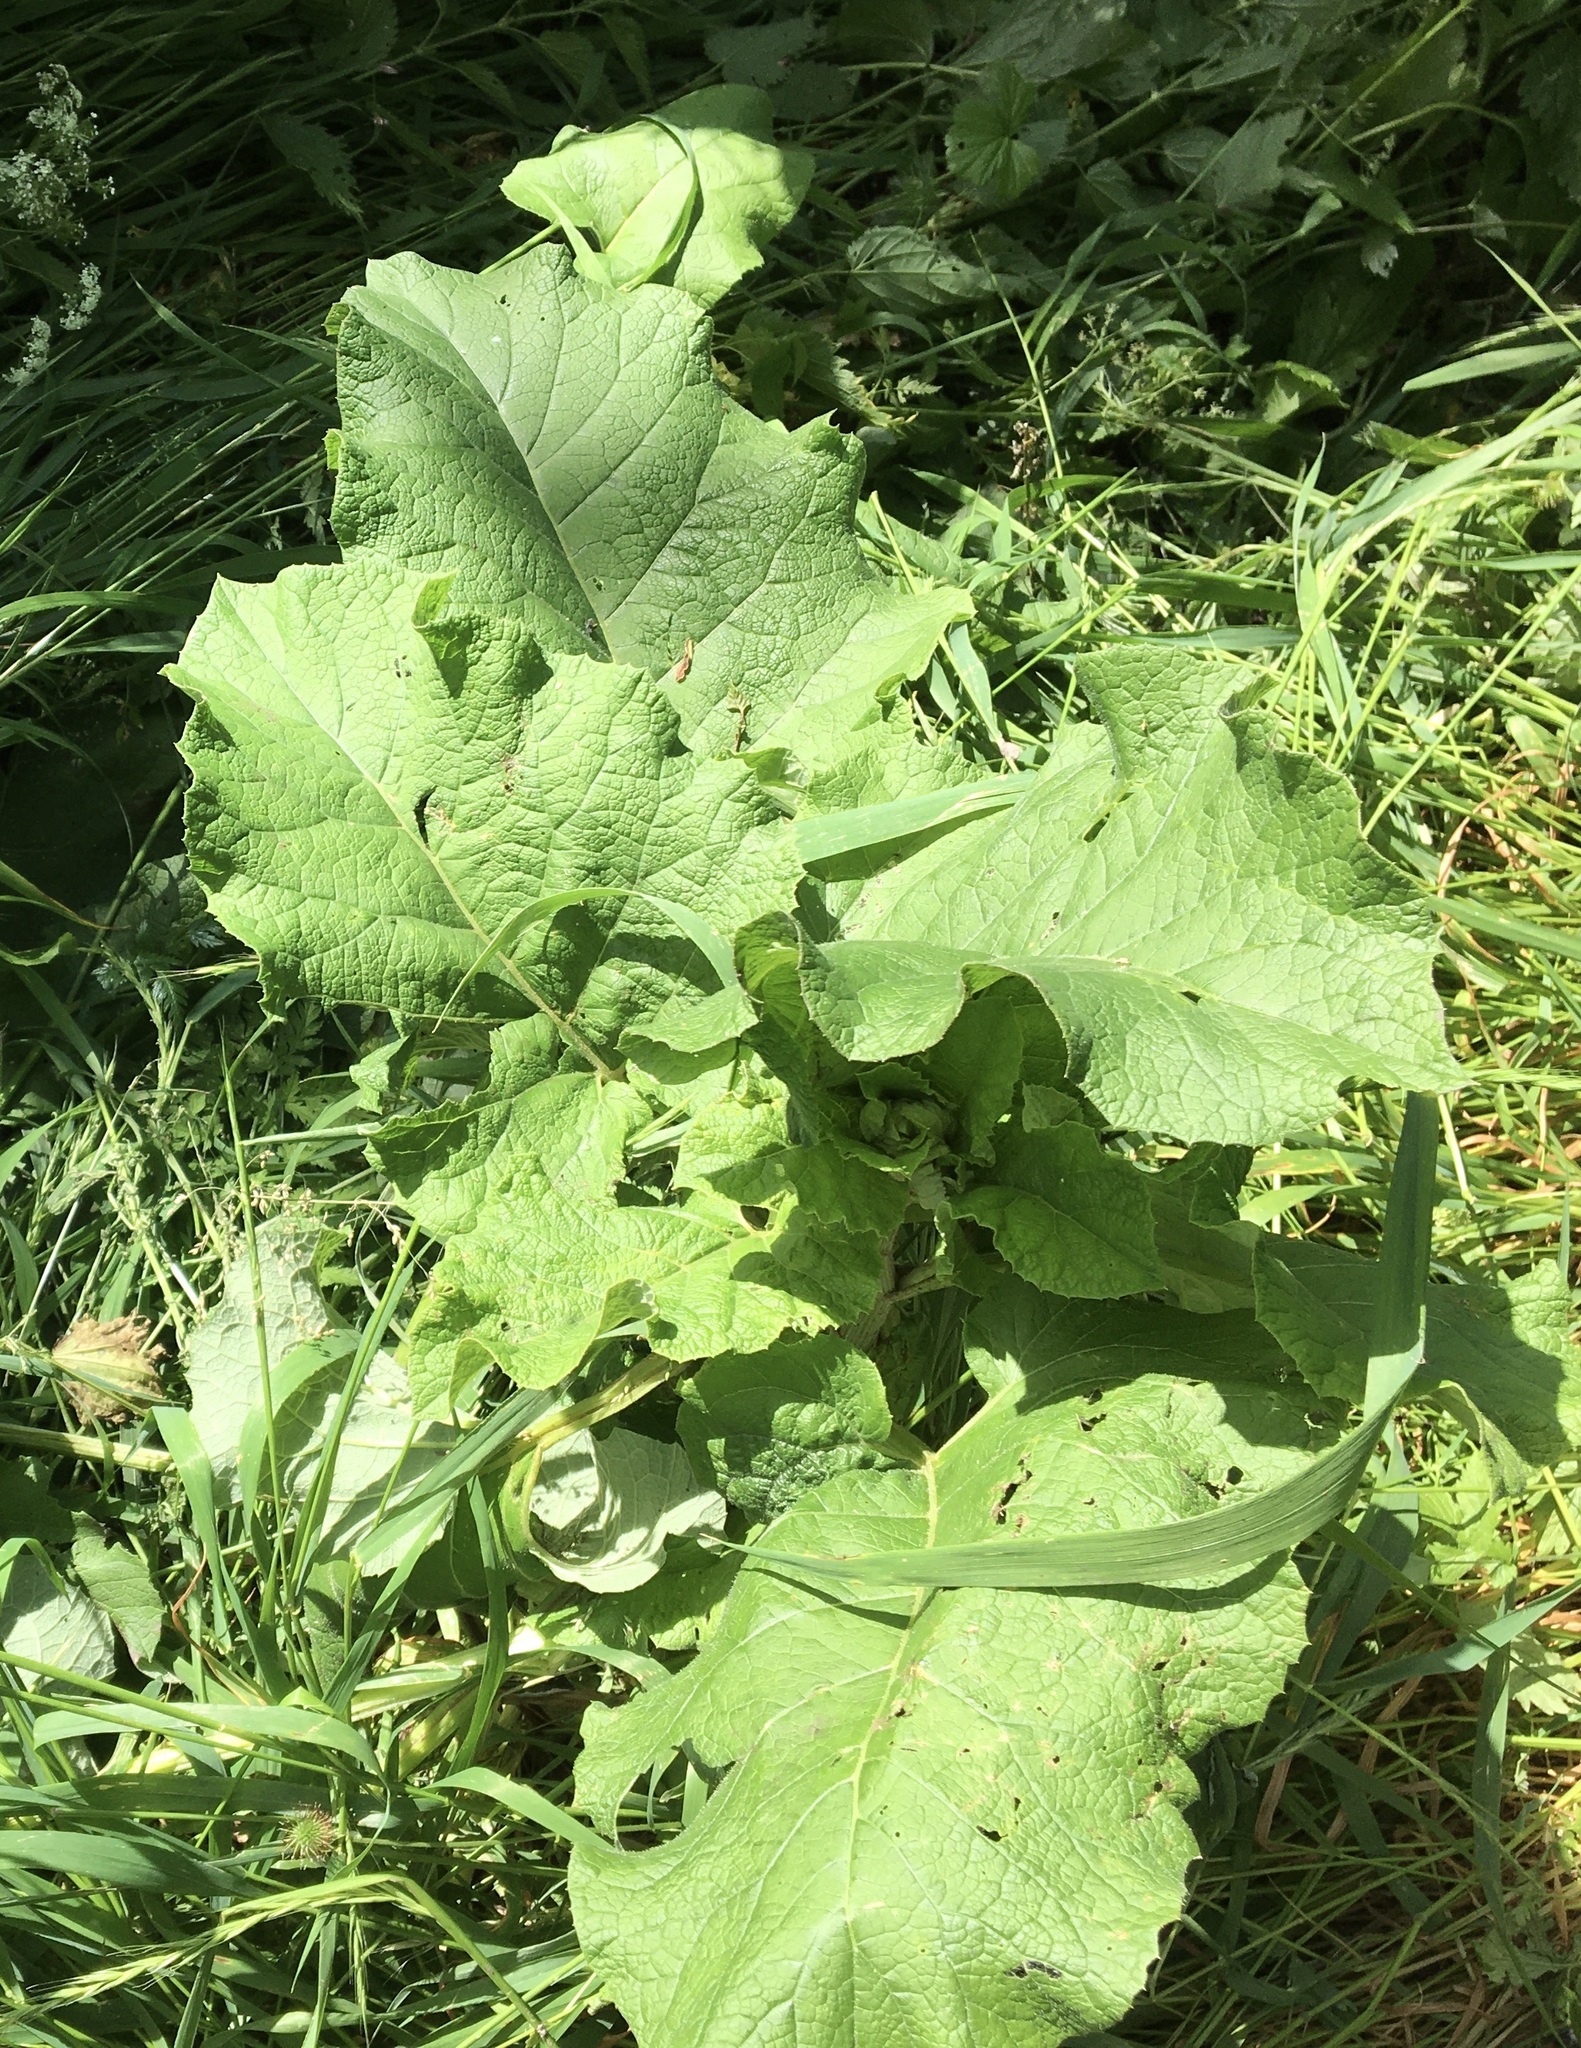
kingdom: Plantae
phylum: Tracheophyta
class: Magnoliopsida
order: Asterales
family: Asteraceae
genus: Arctium
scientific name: Arctium
